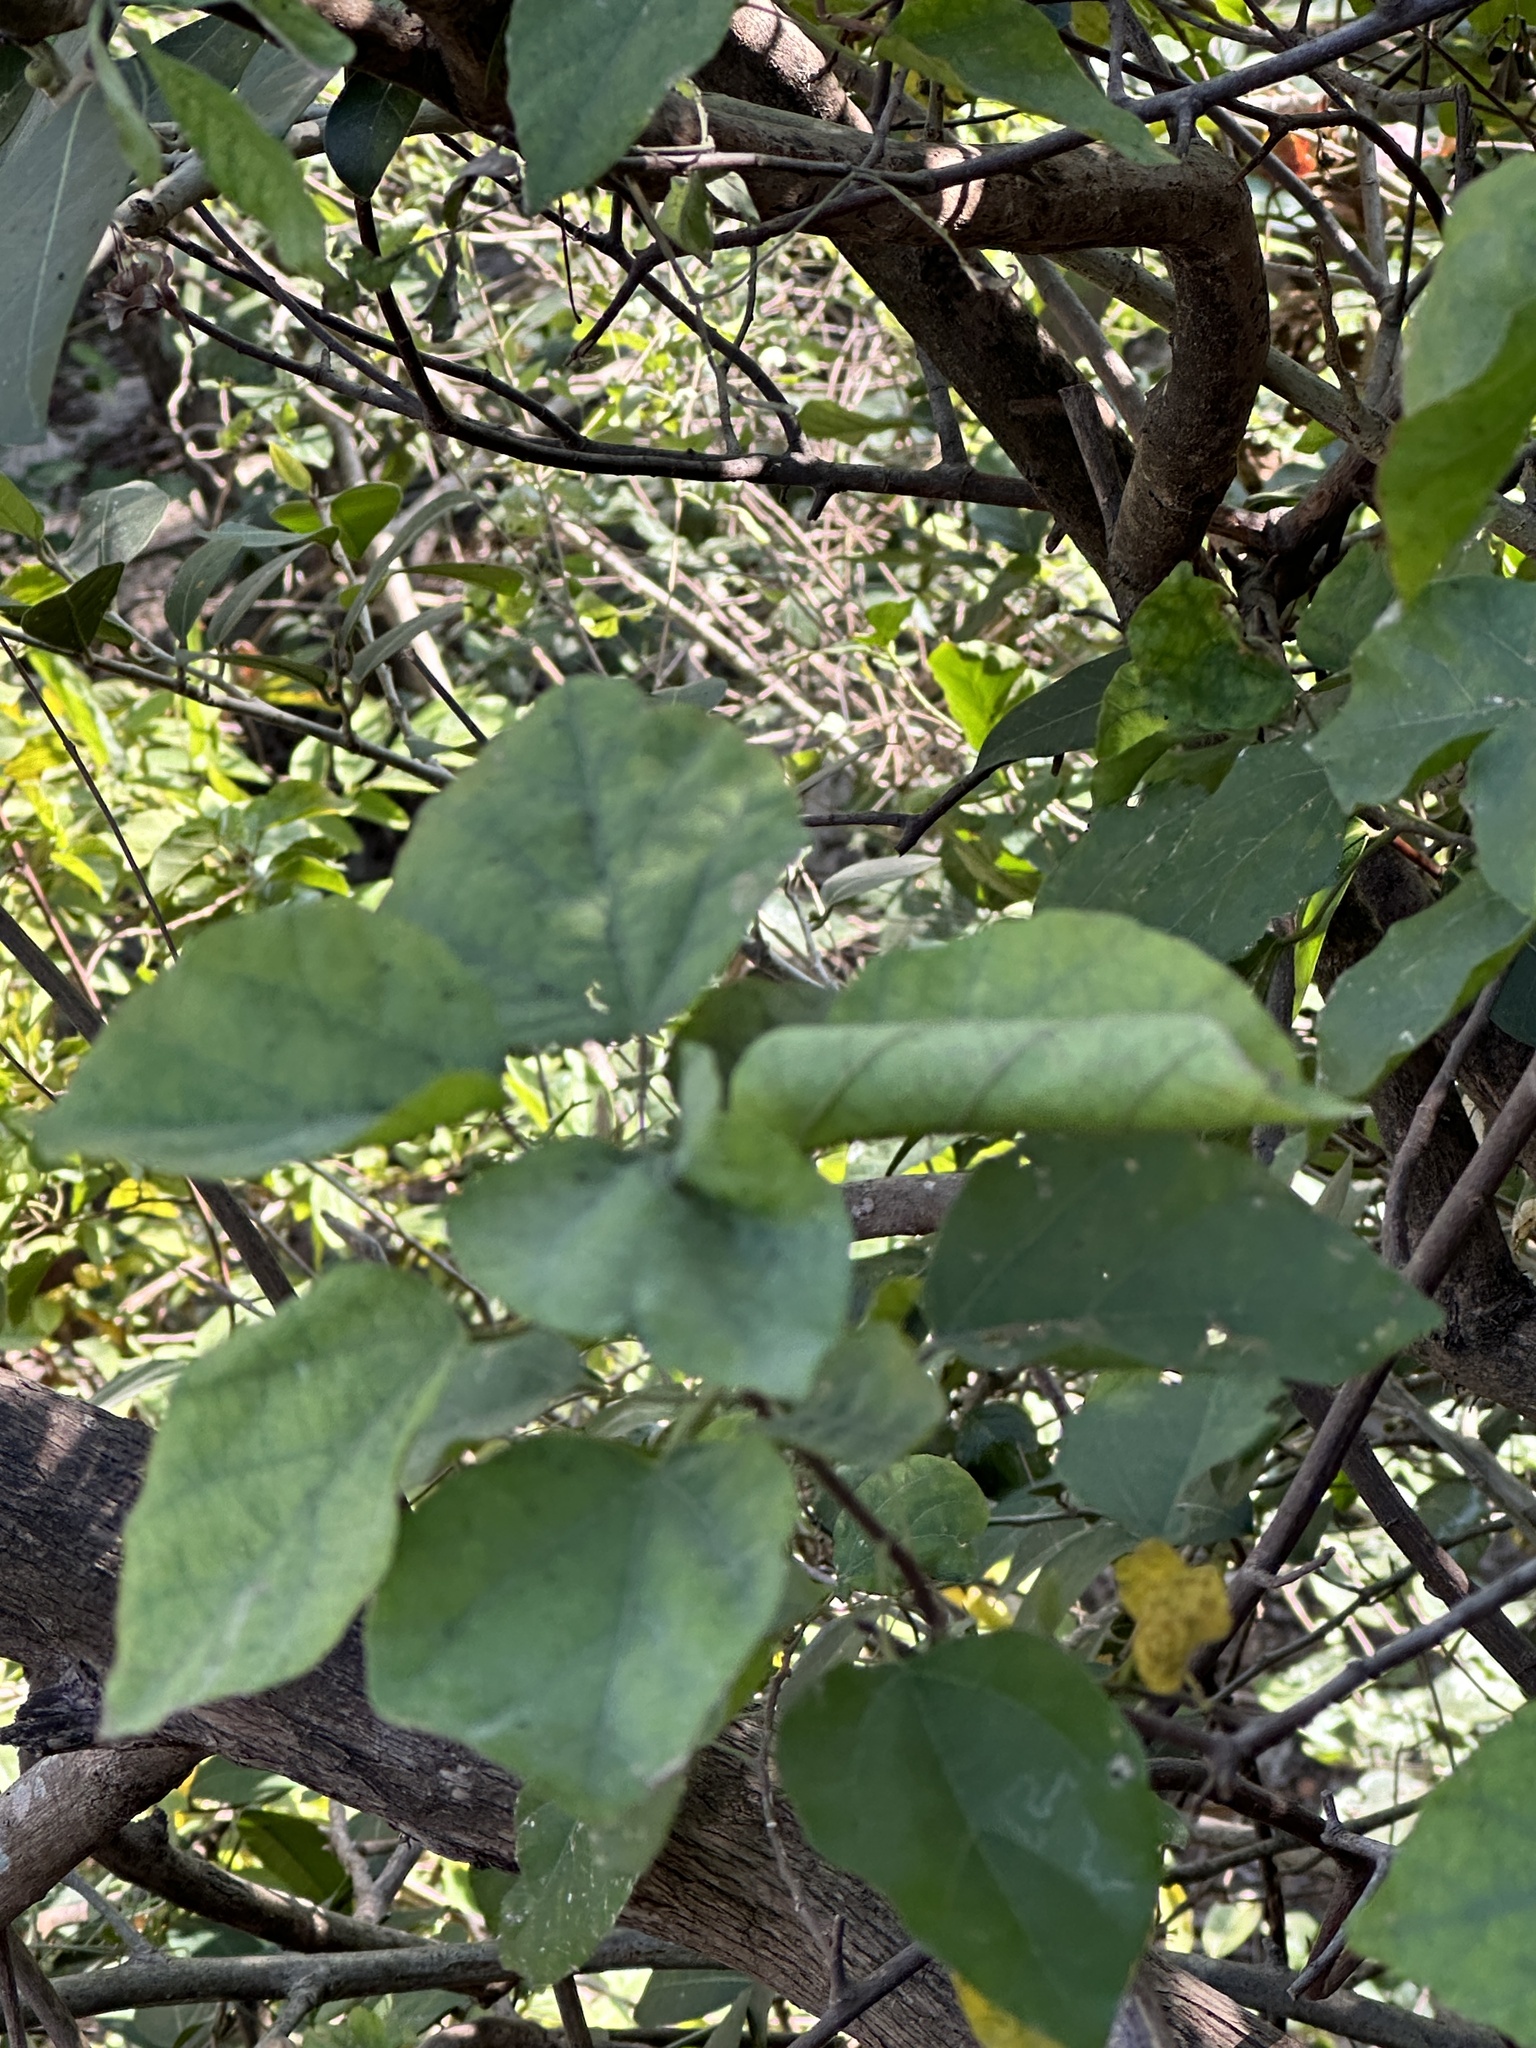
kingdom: Plantae
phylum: Tracheophyta
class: Magnoliopsida
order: Malpighiales
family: Euphorbiaceae
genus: Mallotus
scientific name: Mallotus repandus
